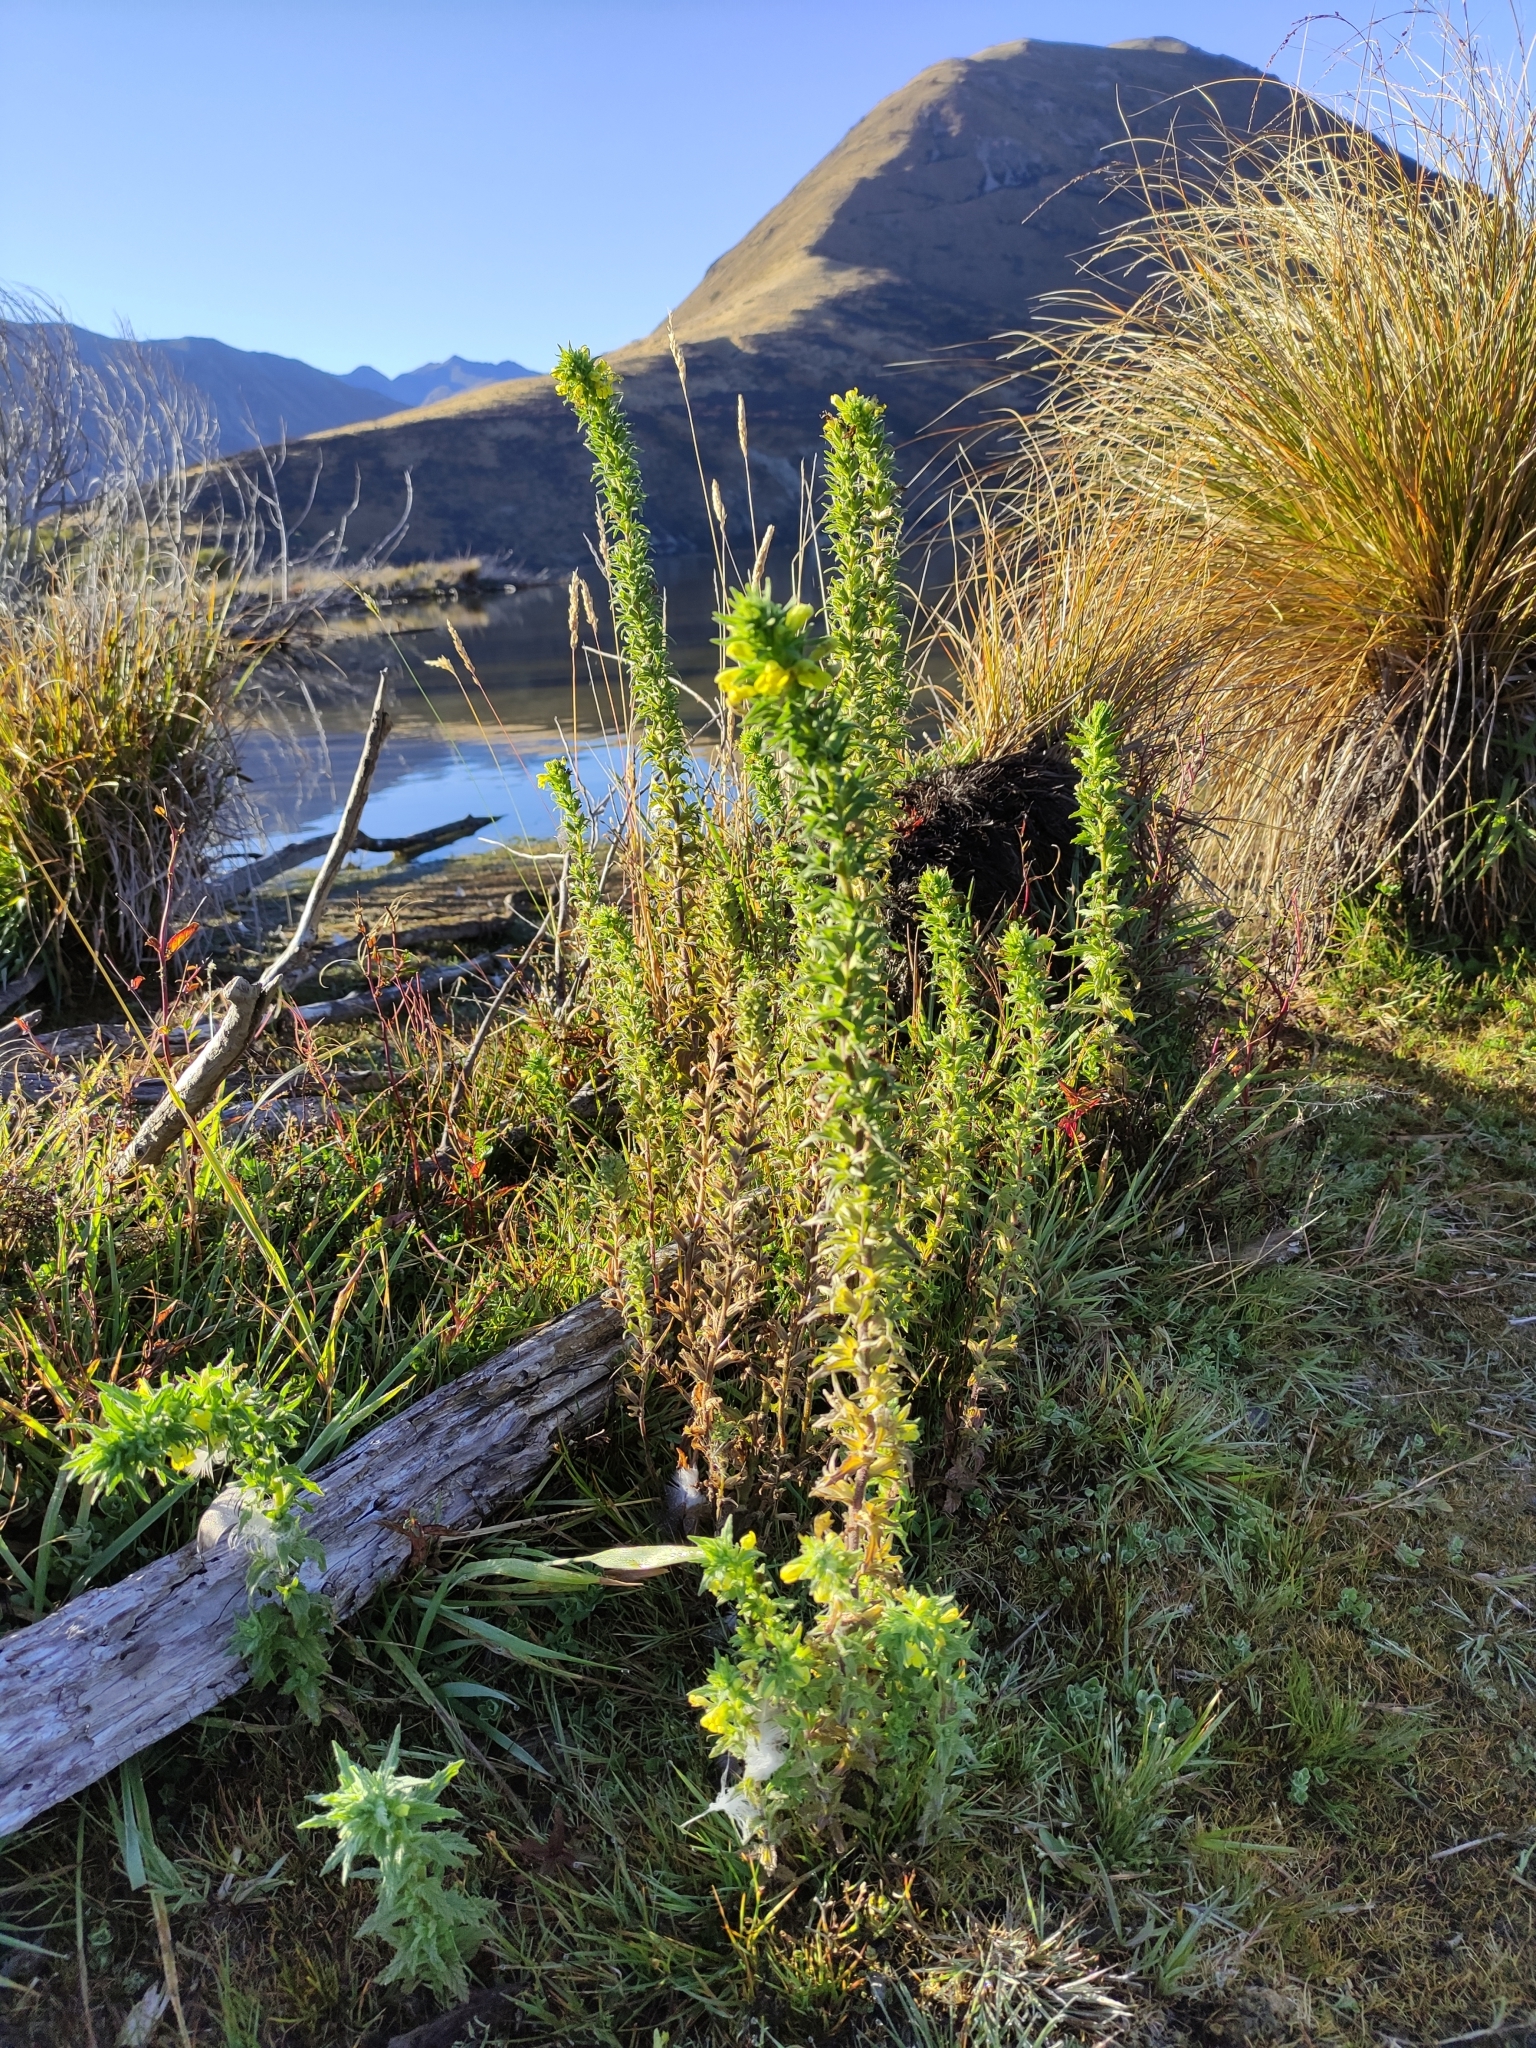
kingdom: Plantae
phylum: Tracheophyta
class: Magnoliopsida
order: Lamiales
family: Orobanchaceae
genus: Bellardia
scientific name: Bellardia viscosa
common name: Sticky parentucellia
